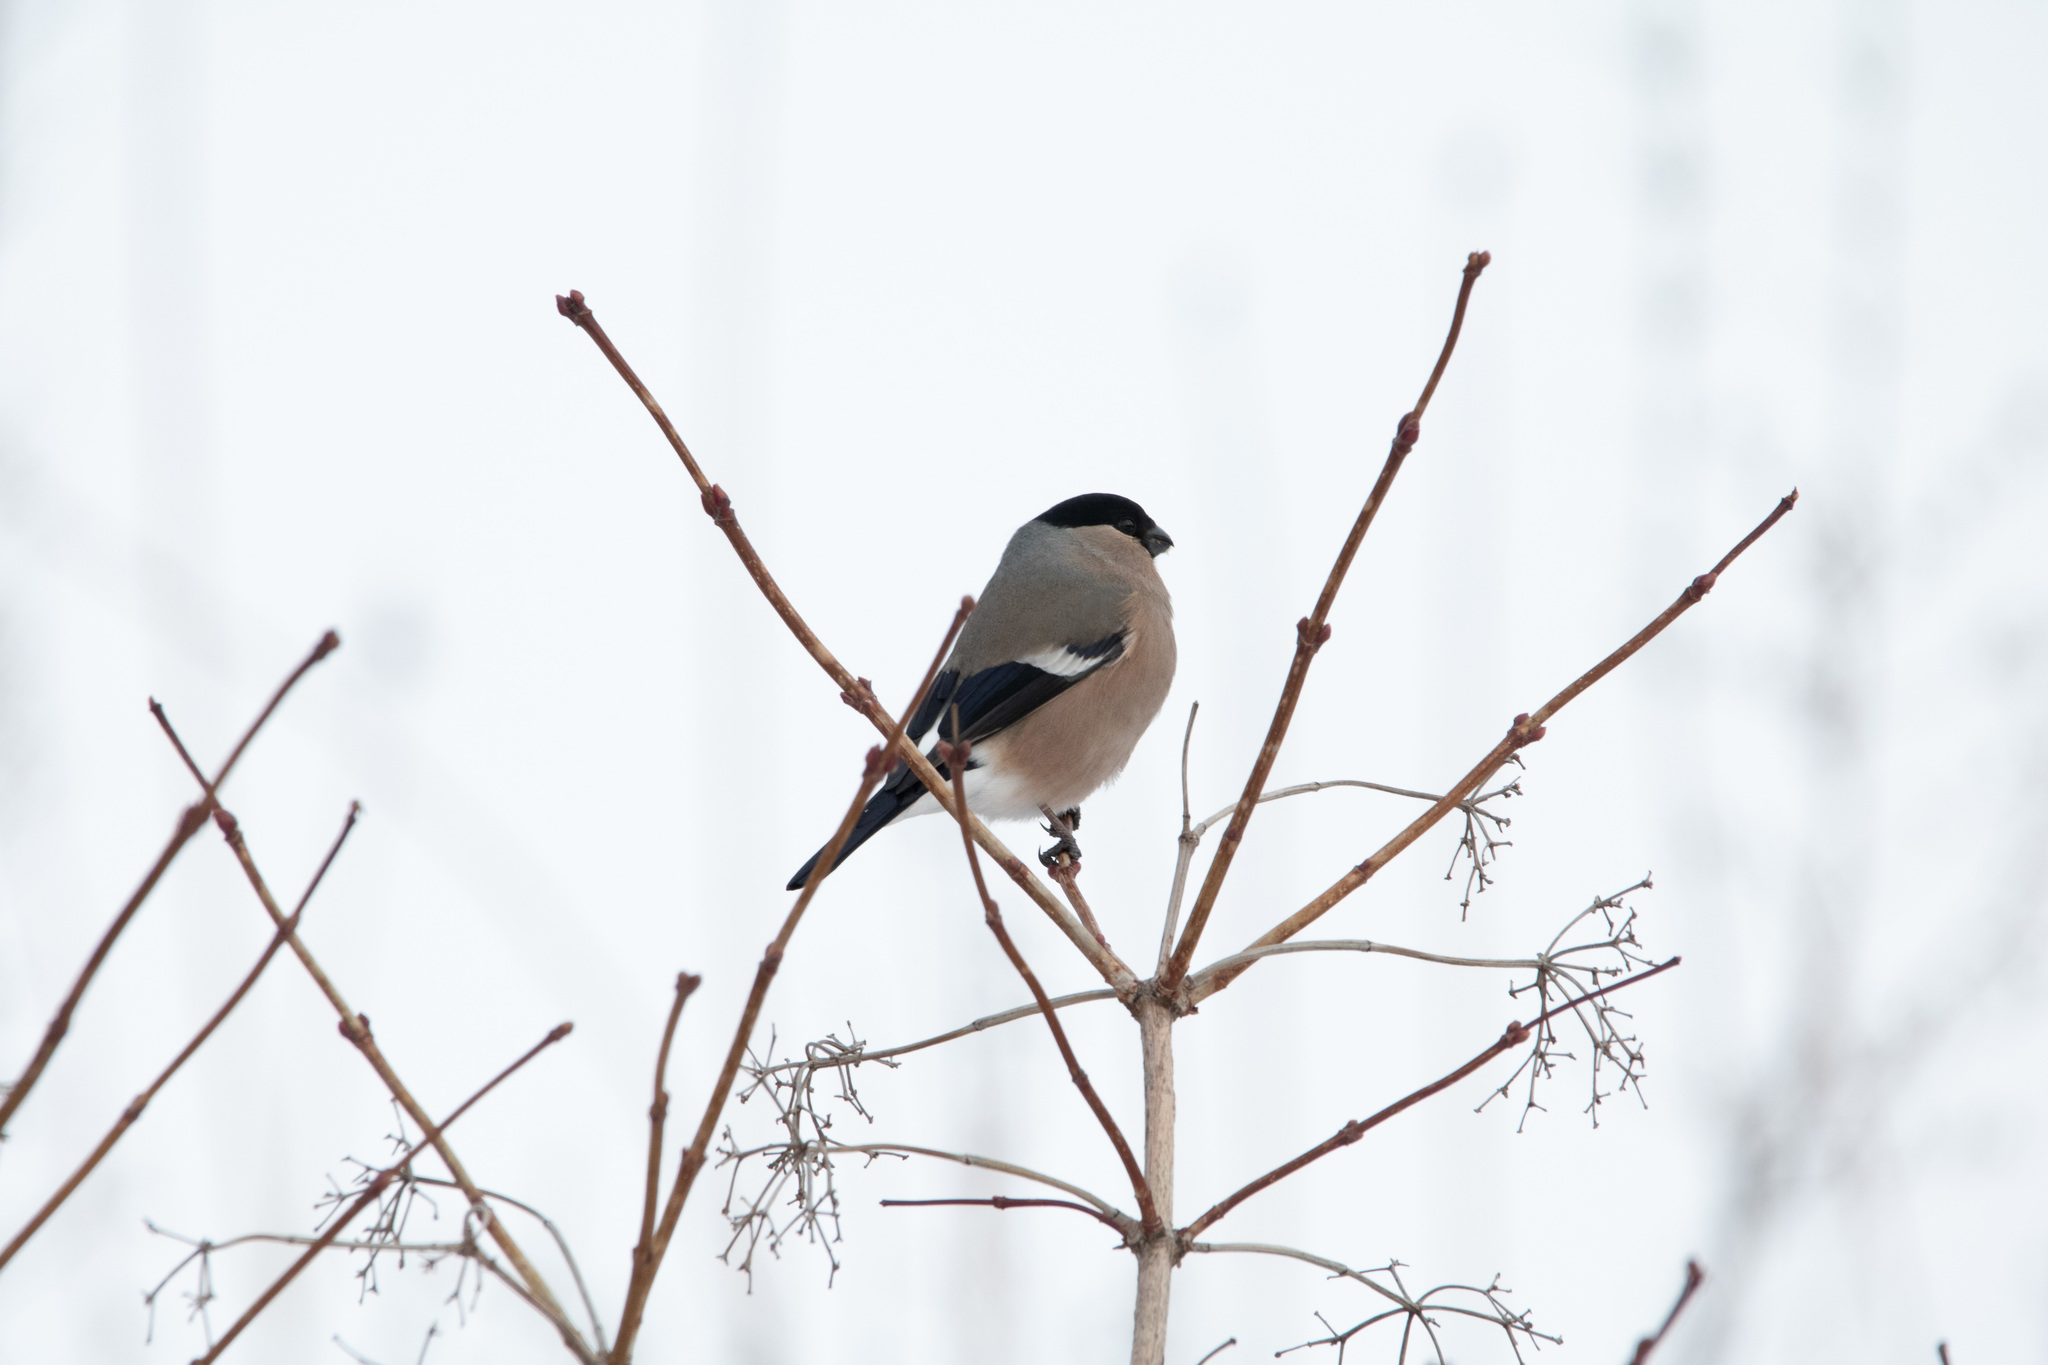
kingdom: Animalia
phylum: Chordata
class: Aves
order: Passeriformes
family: Fringillidae
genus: Pyrrhula
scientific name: Pyrrhula pyrrhula
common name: Eurasian bullfinch
